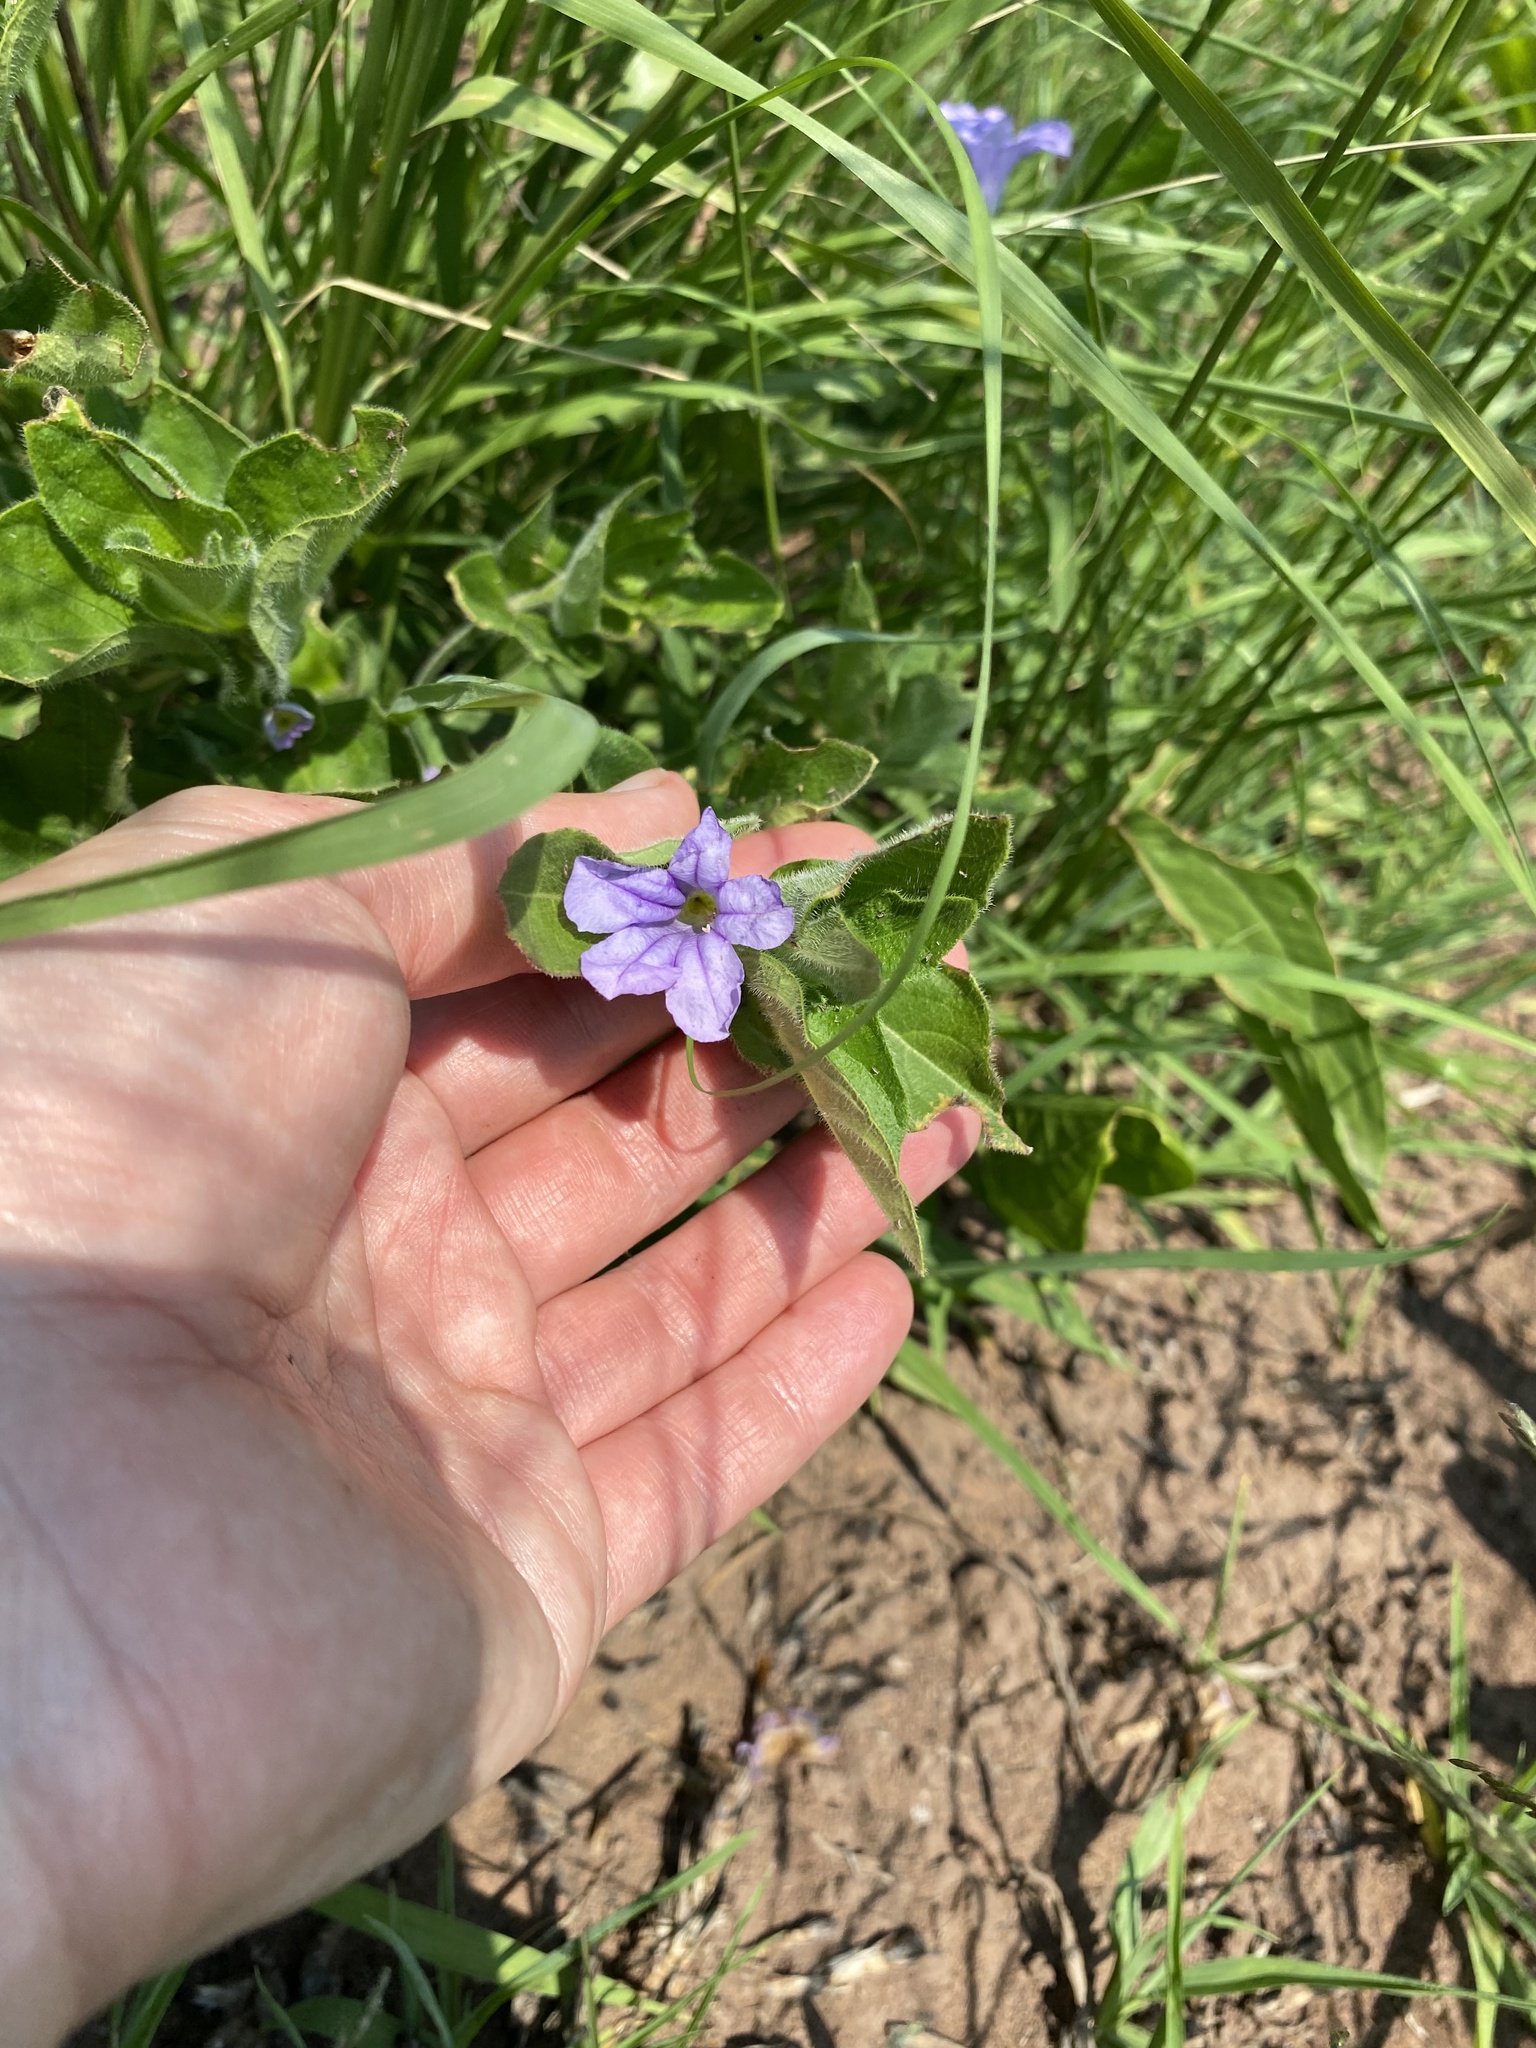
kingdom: Plantae
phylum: Tracheophyta
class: Magnoliopsida
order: Lamiales
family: Acanthaceae
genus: Ruellia
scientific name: Ruellia cordata
